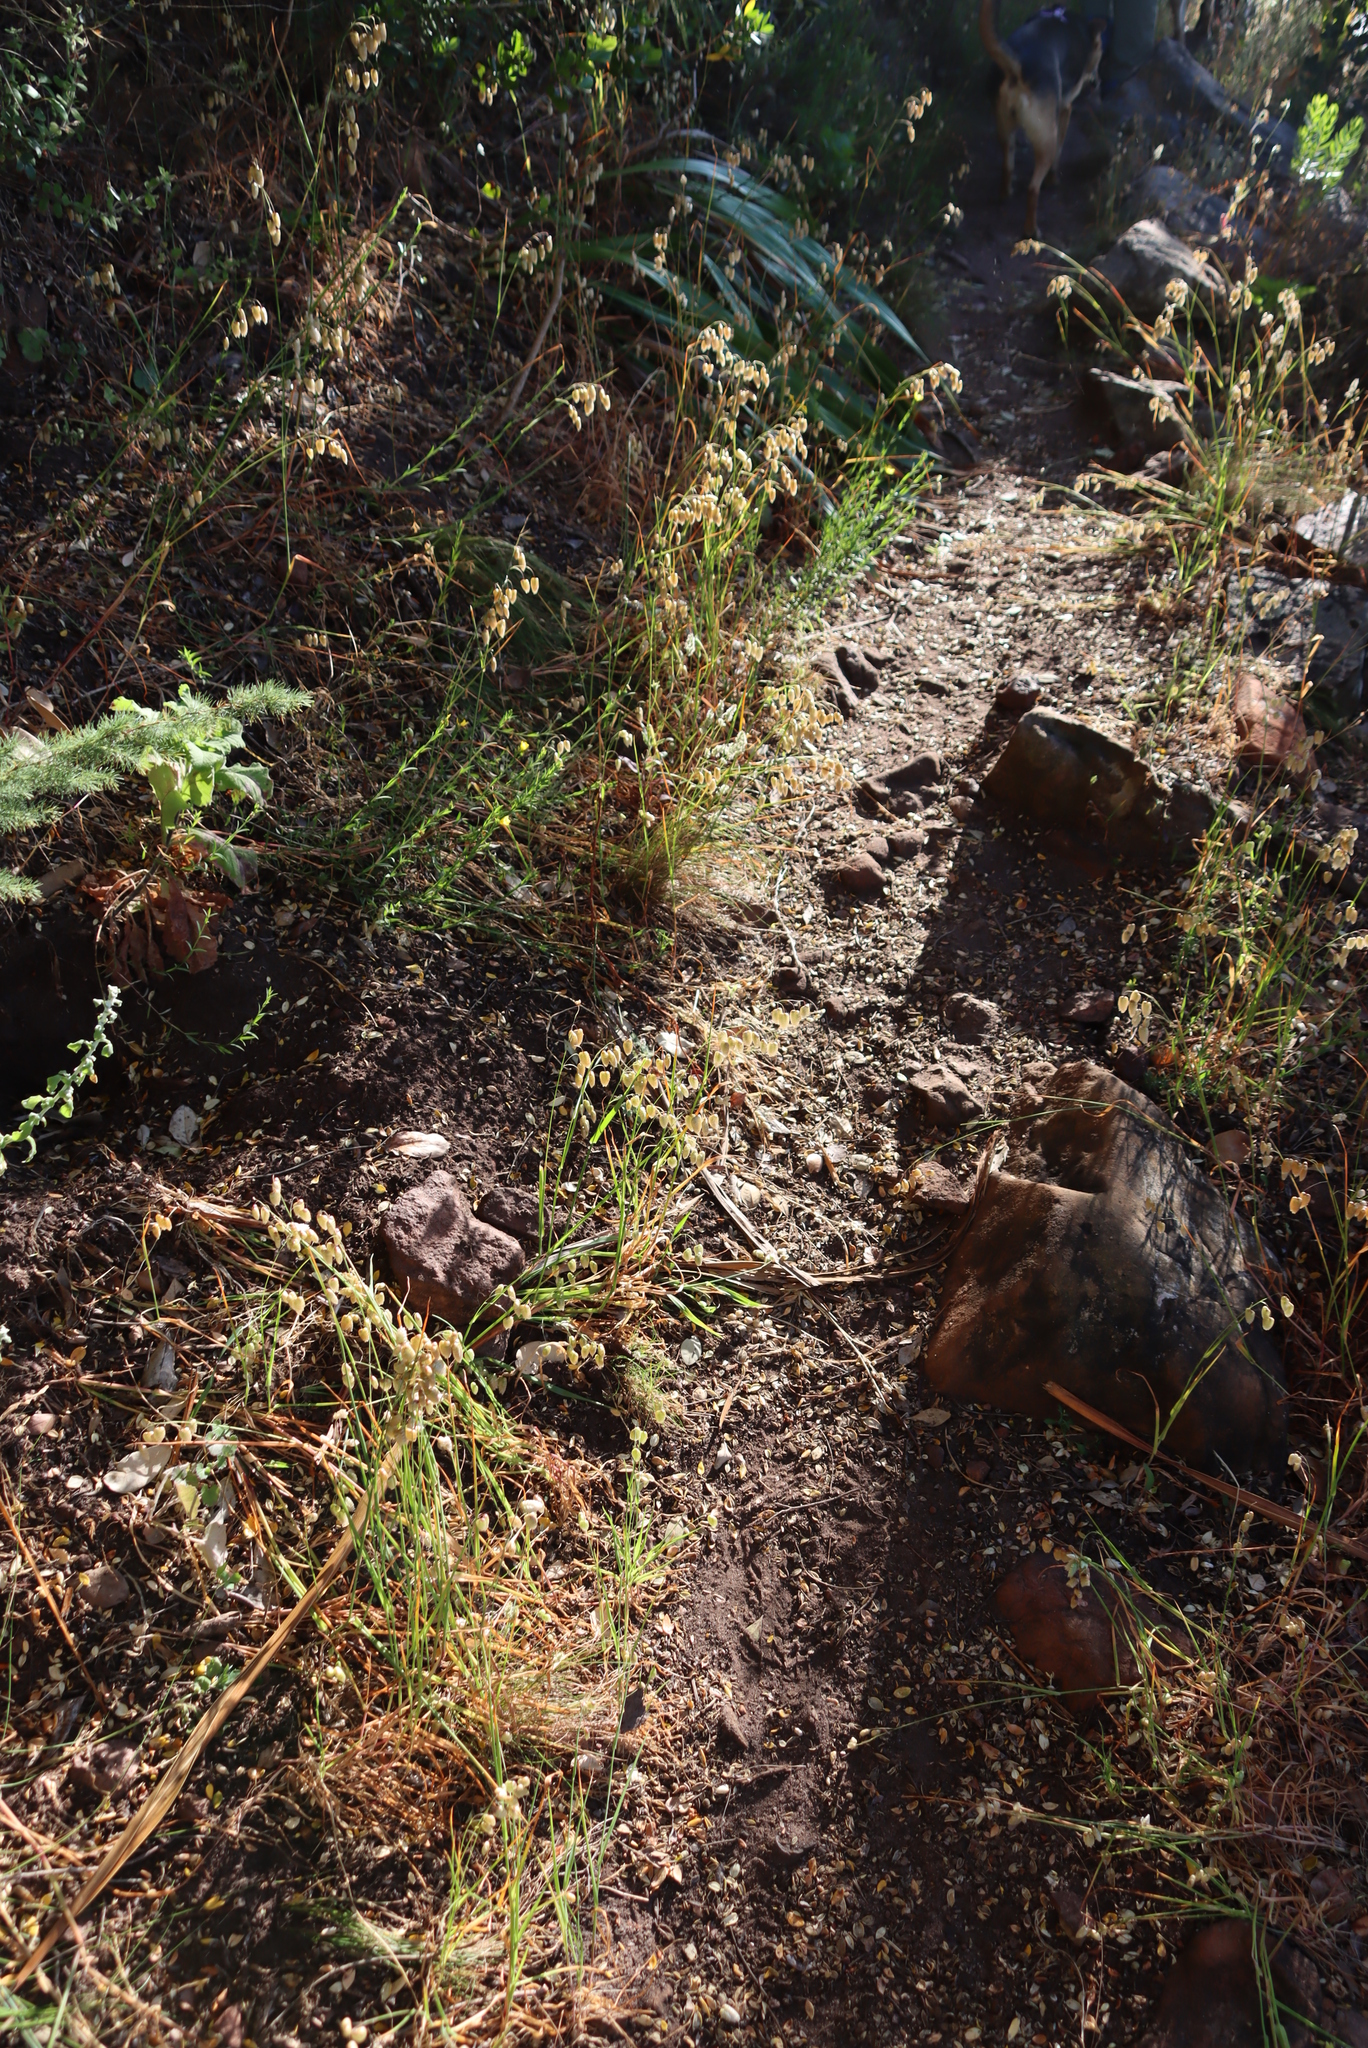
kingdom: Plantae
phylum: Tracheophyta
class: Liliopsida
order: Poales
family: Poaceae
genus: Briza
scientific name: Briza maxima
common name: Big quakinggrass
